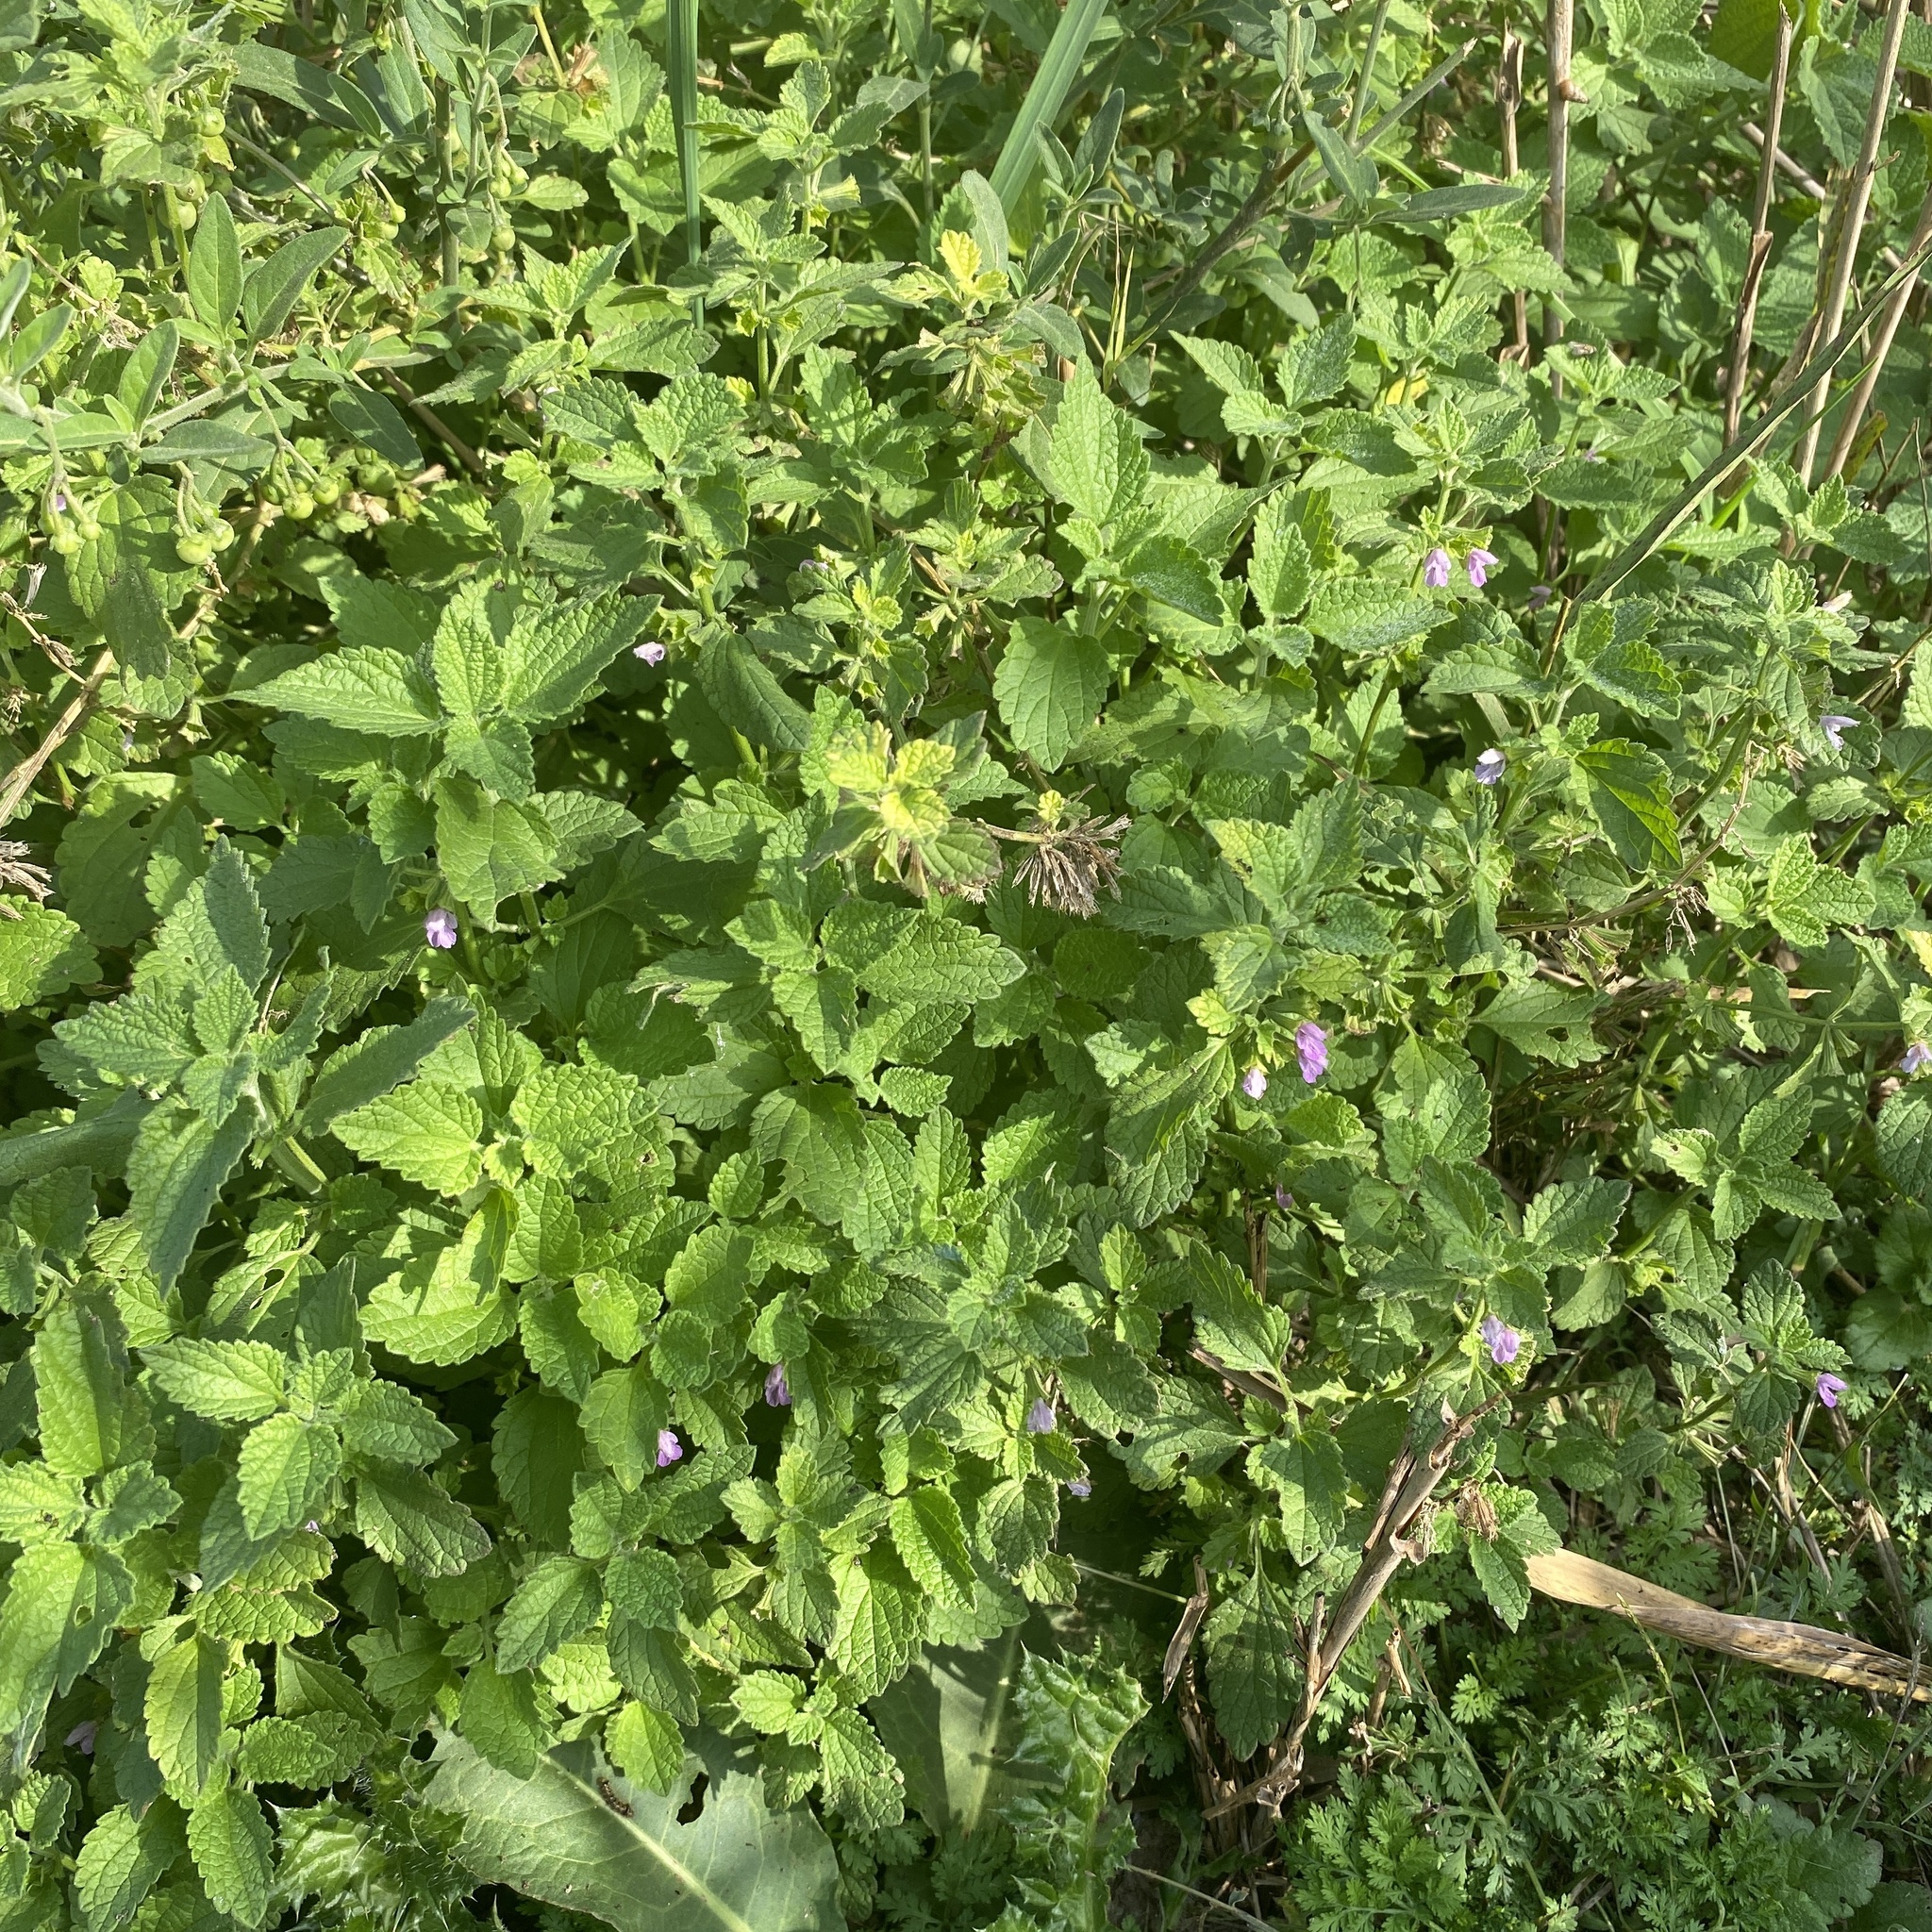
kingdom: Plantae
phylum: Tracheophyta
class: Magnoliopsida
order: Lamiales
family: Lamiaceae
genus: Ballota
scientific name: Ballota nigra
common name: Black horehound
